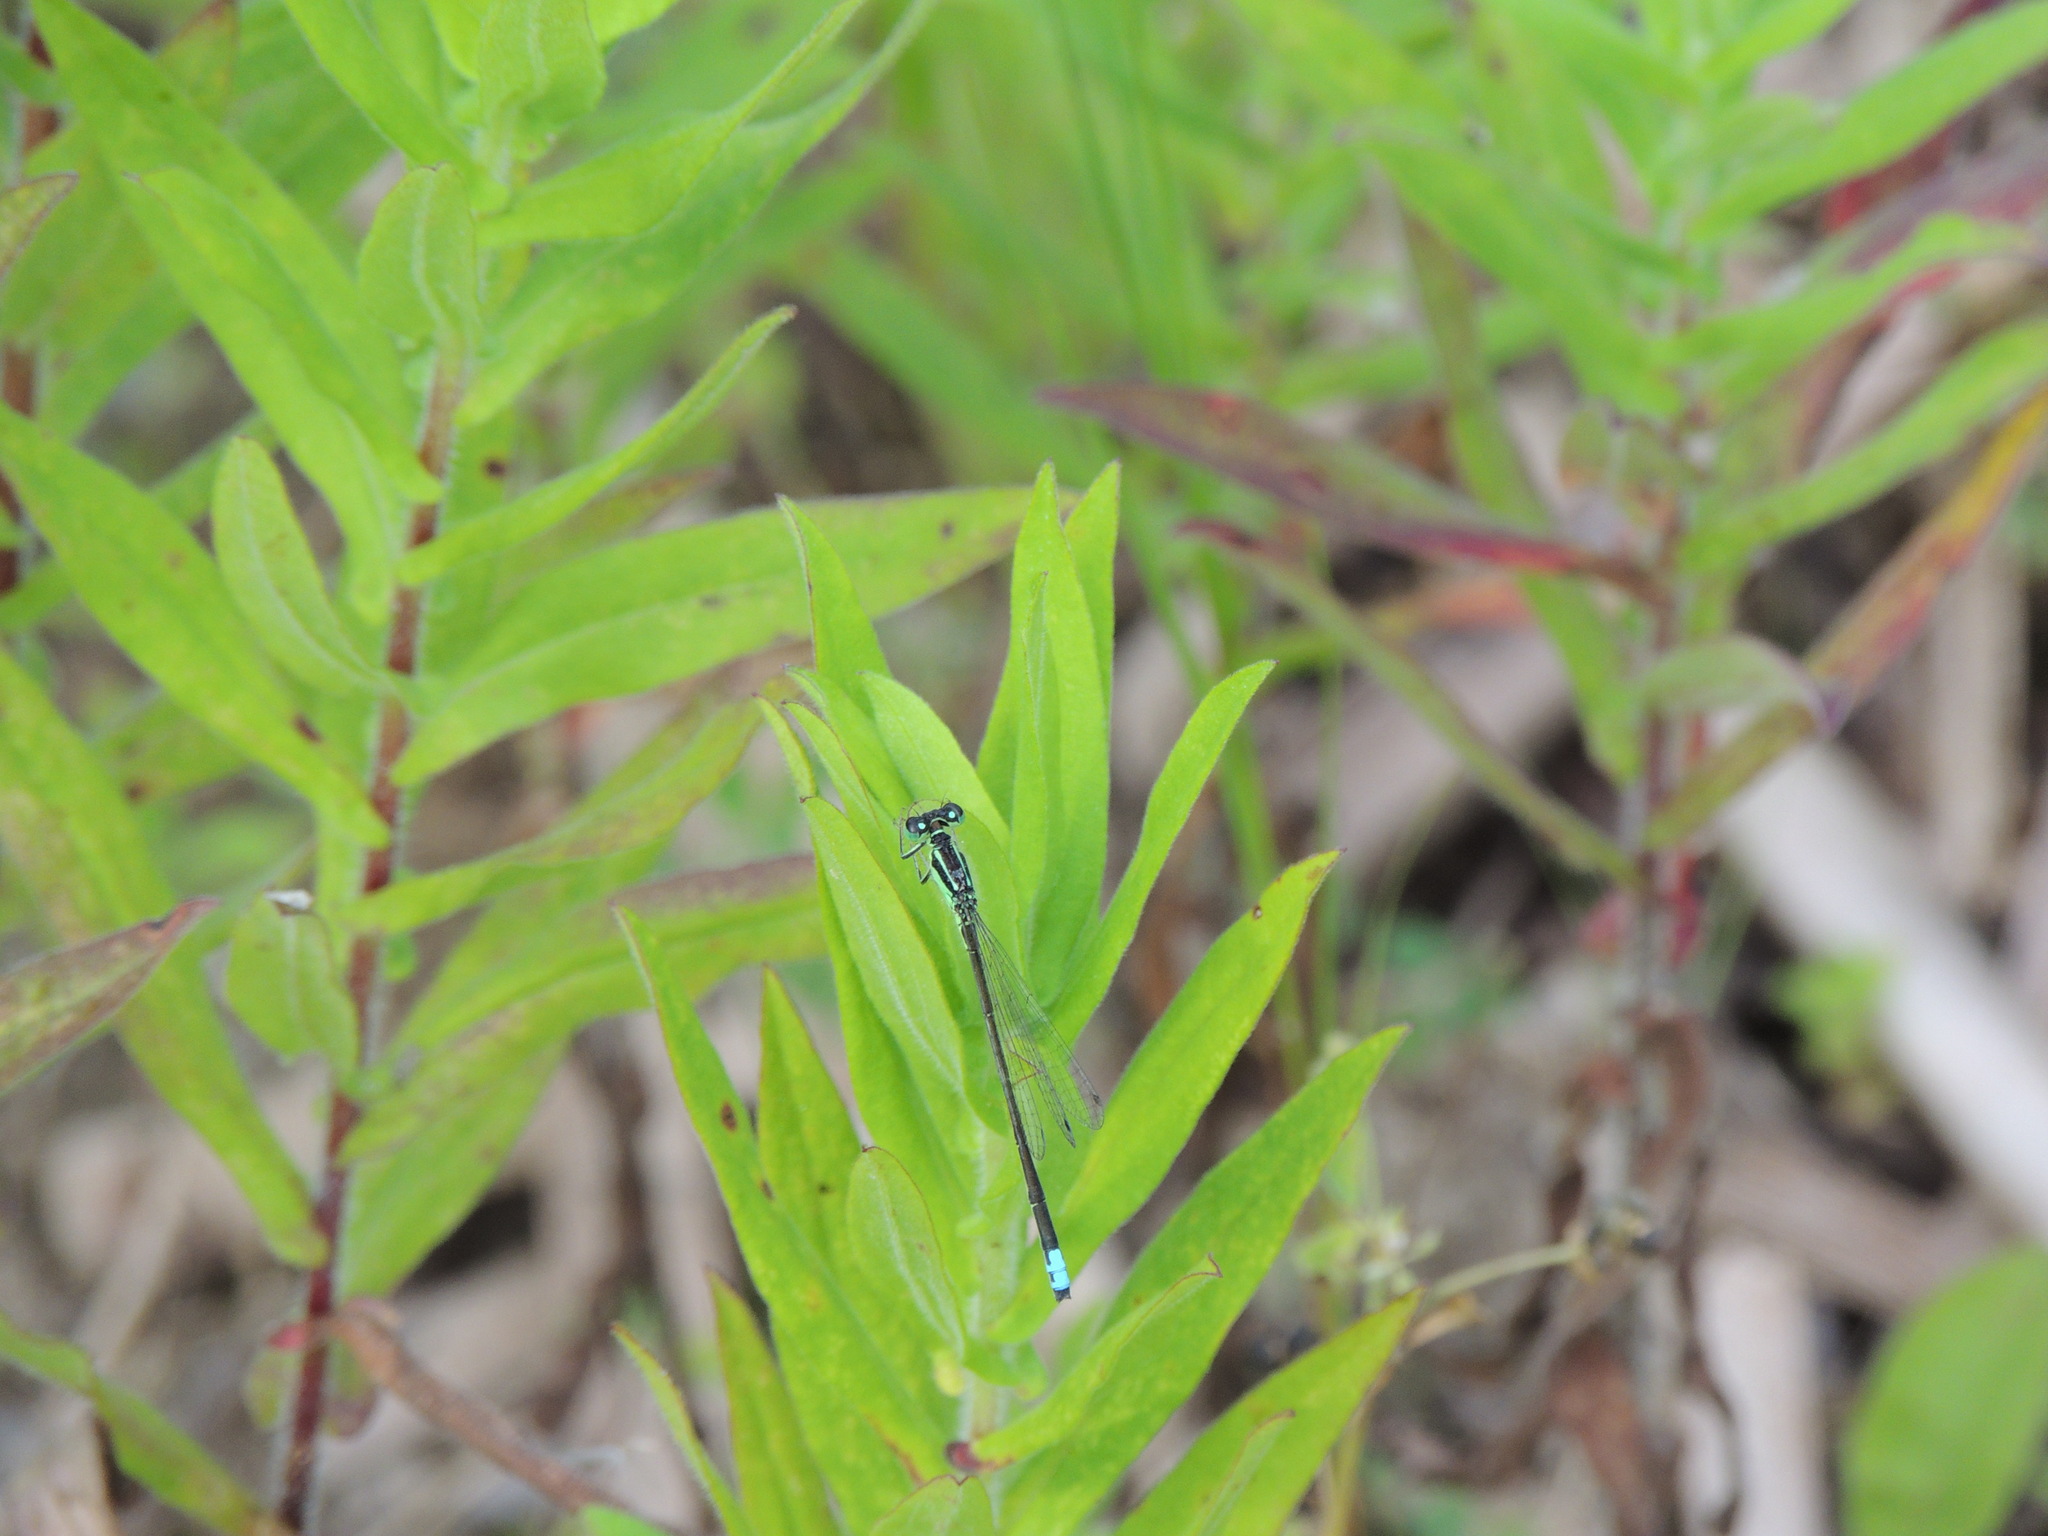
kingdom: Animalia
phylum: Arthropoda
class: Insecta
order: Odonata
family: Coenagrionidae
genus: Ischnura
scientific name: Ischnura verticalis
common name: Eastern forktail
